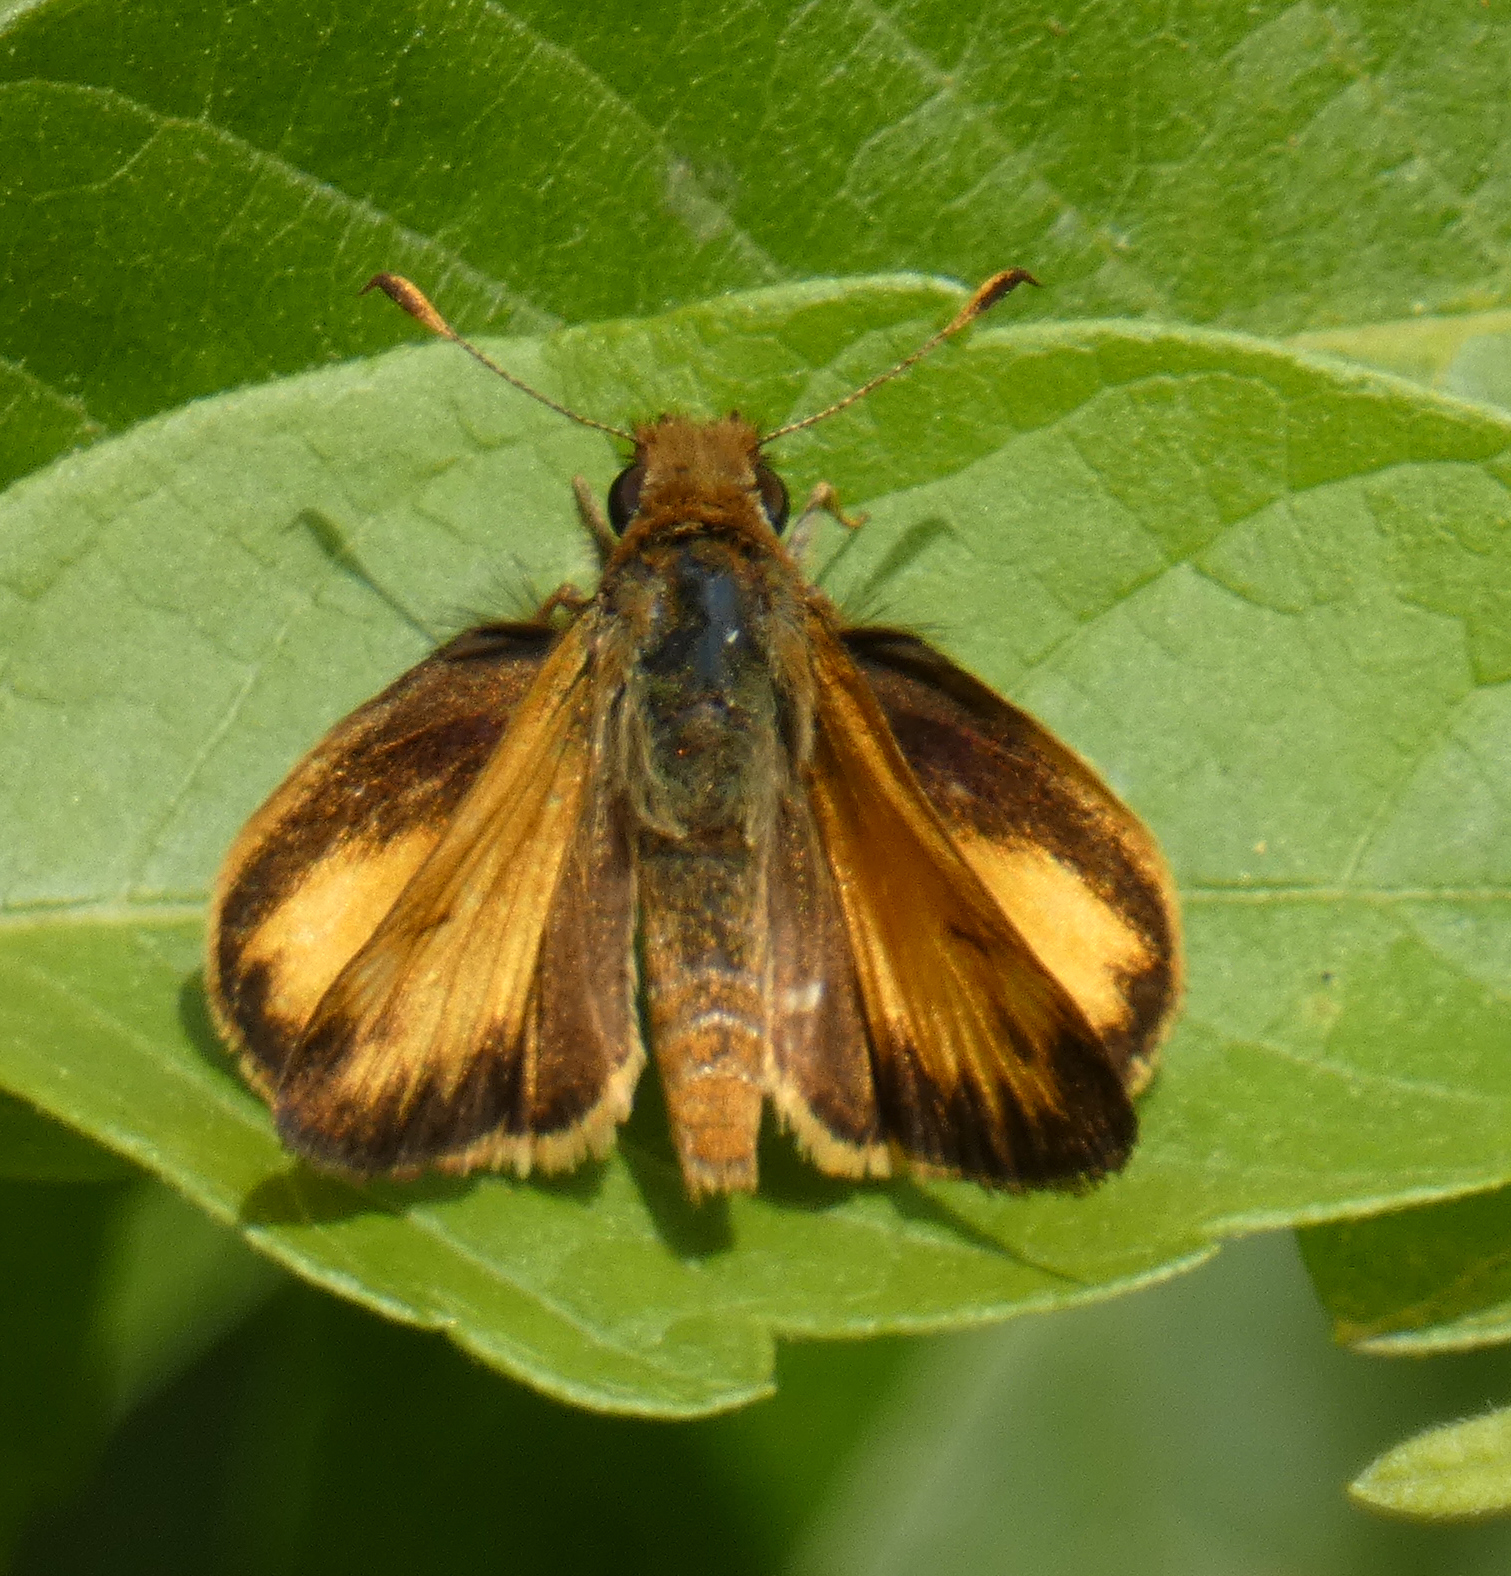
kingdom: Animalia
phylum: Arthropoda
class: Insecta
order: Lepidoptera
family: Hesperiidae
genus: Lon
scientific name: Lon zabulon
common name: Zabulon skipper
